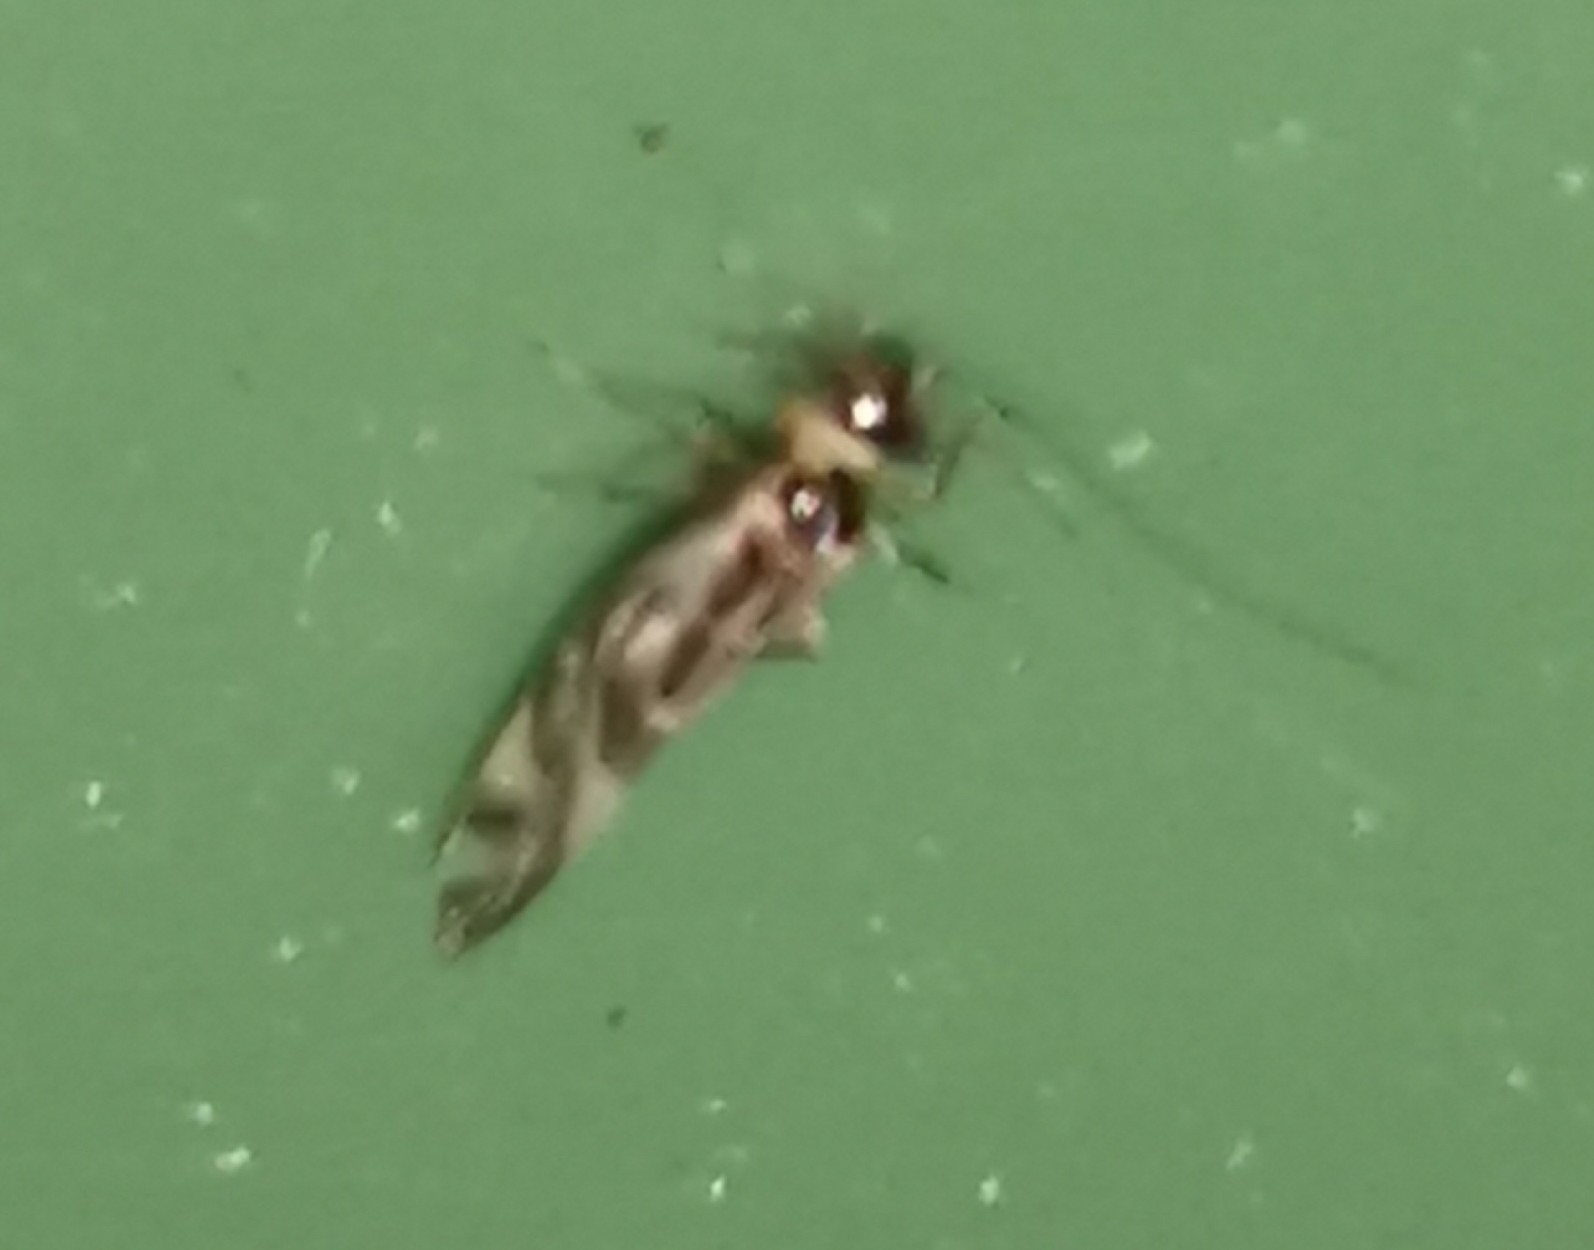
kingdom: Animalia
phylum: Arthropoda
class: Insecta
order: Psocodea
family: Stenopsocidae
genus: Graphopsocus
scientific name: Graphopsocus cruciatus
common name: Lizard bark louse
